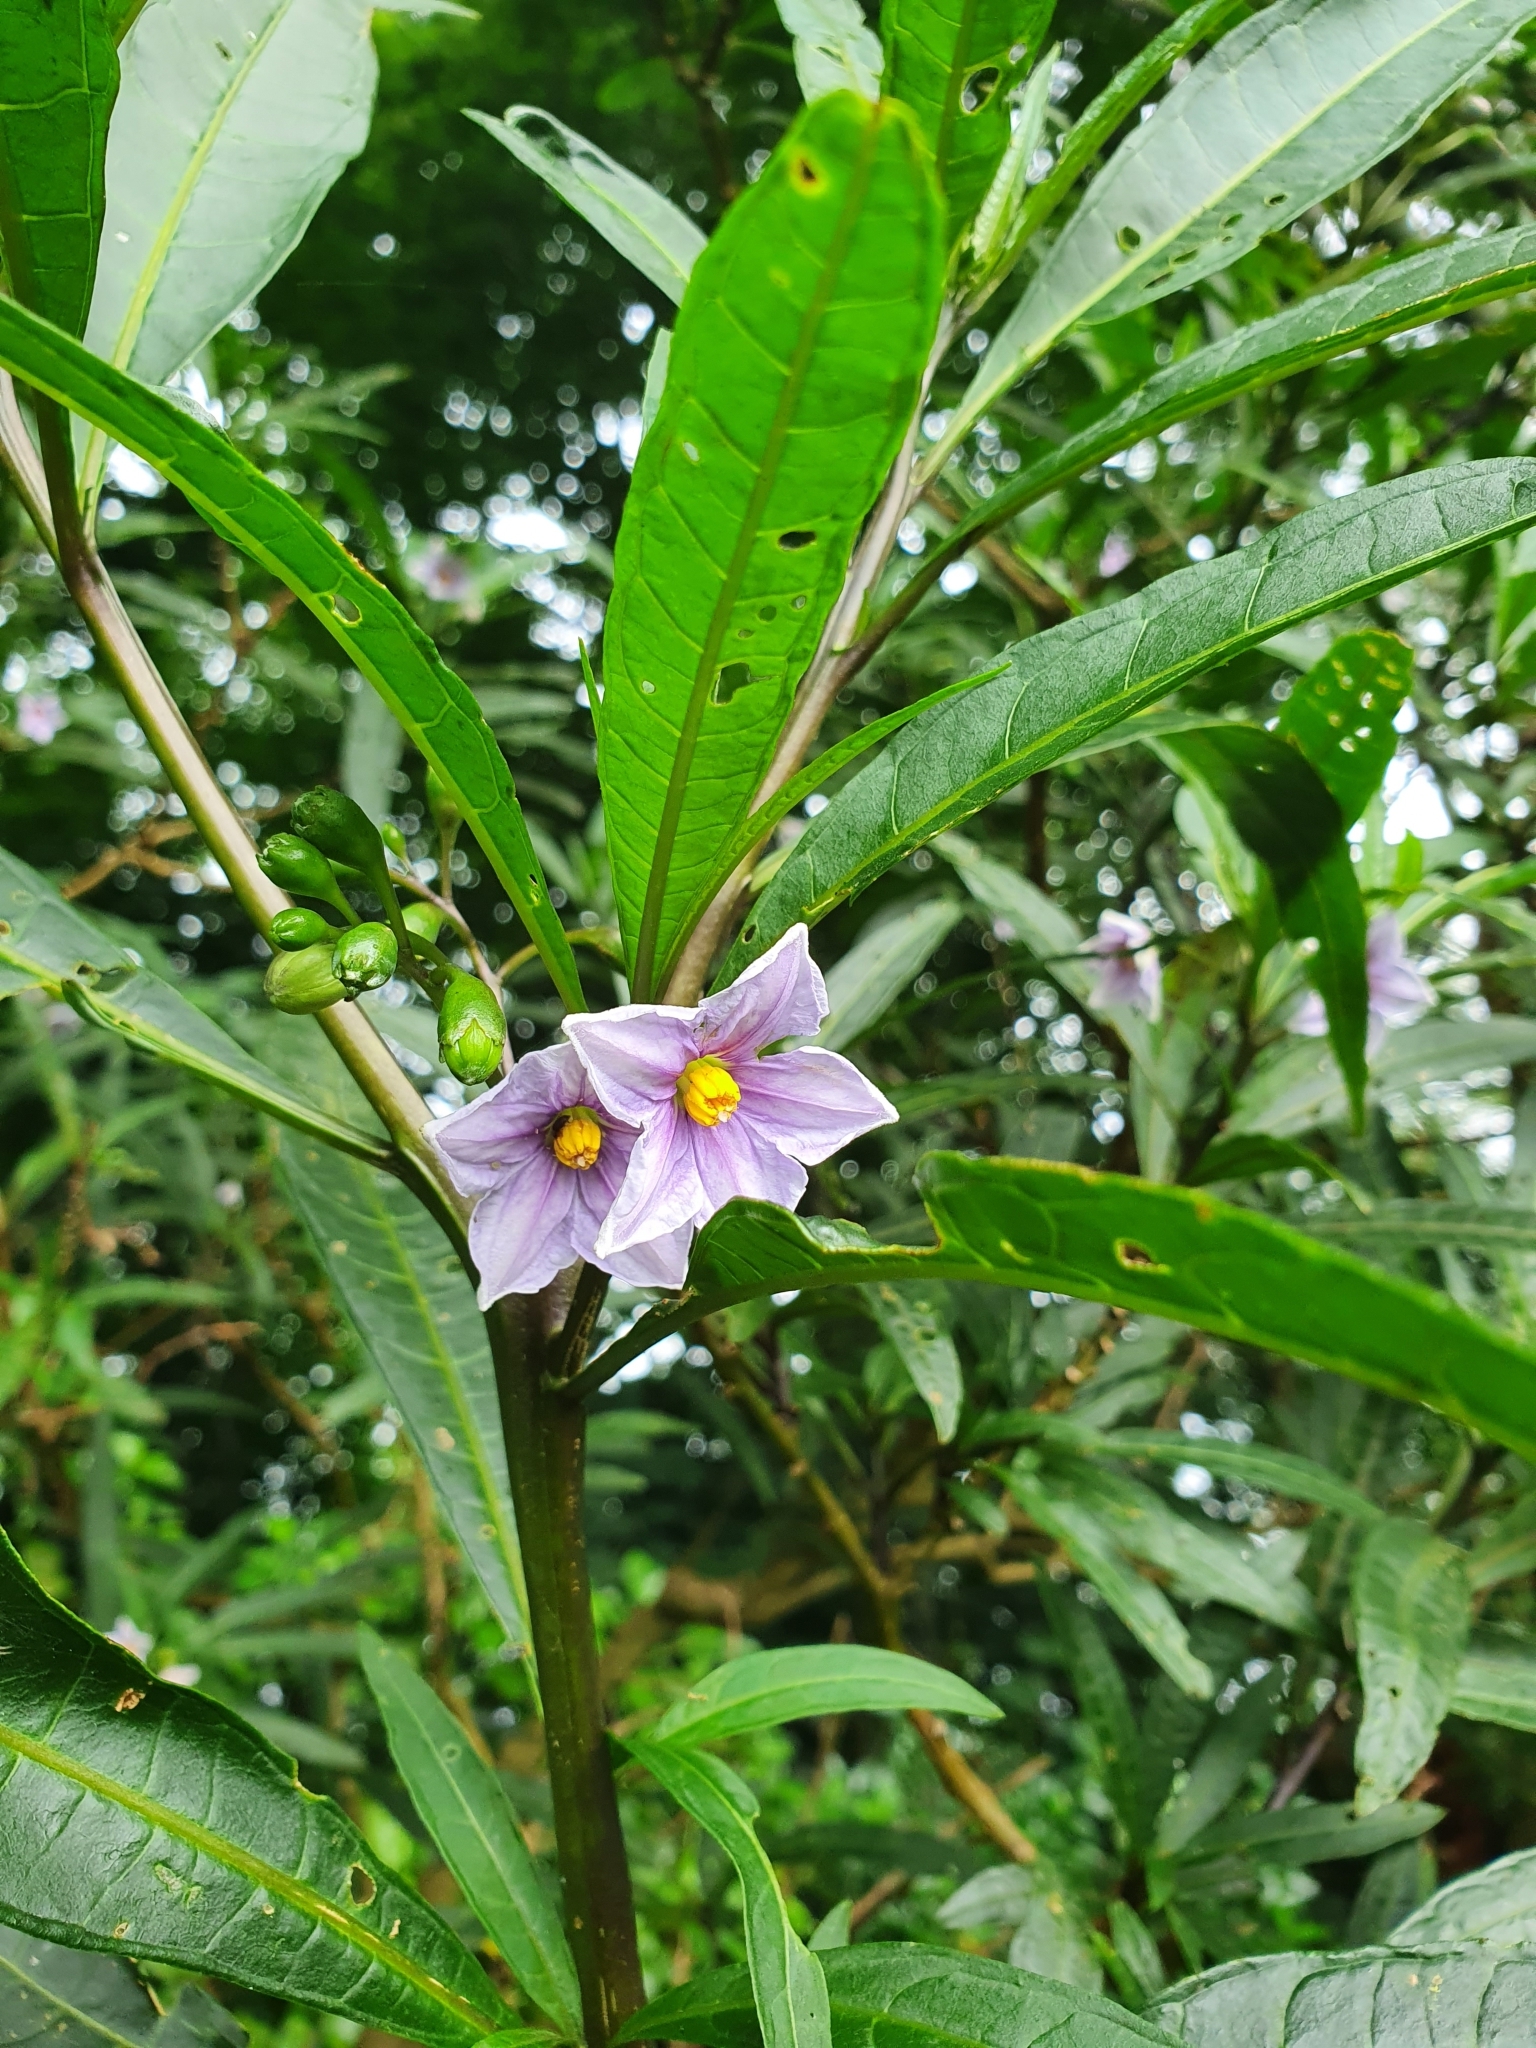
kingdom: Plantae
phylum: Tracheophyta
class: Magnoliopsida
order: Solanales
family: Solanaceae
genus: Solanum
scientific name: Solanum aviculare
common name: New zealand nightshade
